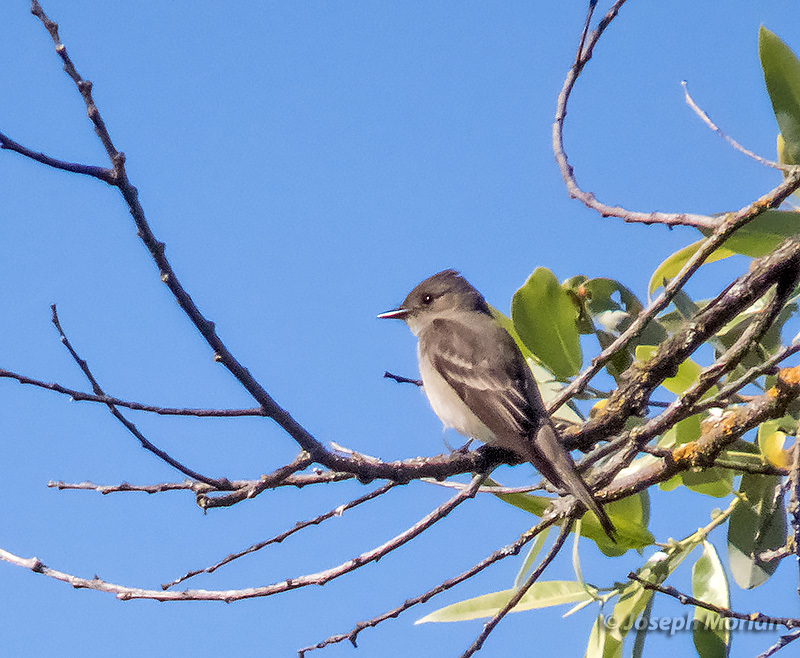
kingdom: Animalia
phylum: Chordata
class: Aves
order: Passeriformes
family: Tyrannidae
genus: Contopus
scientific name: Contopus sordidulus
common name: Western wood-pewee
